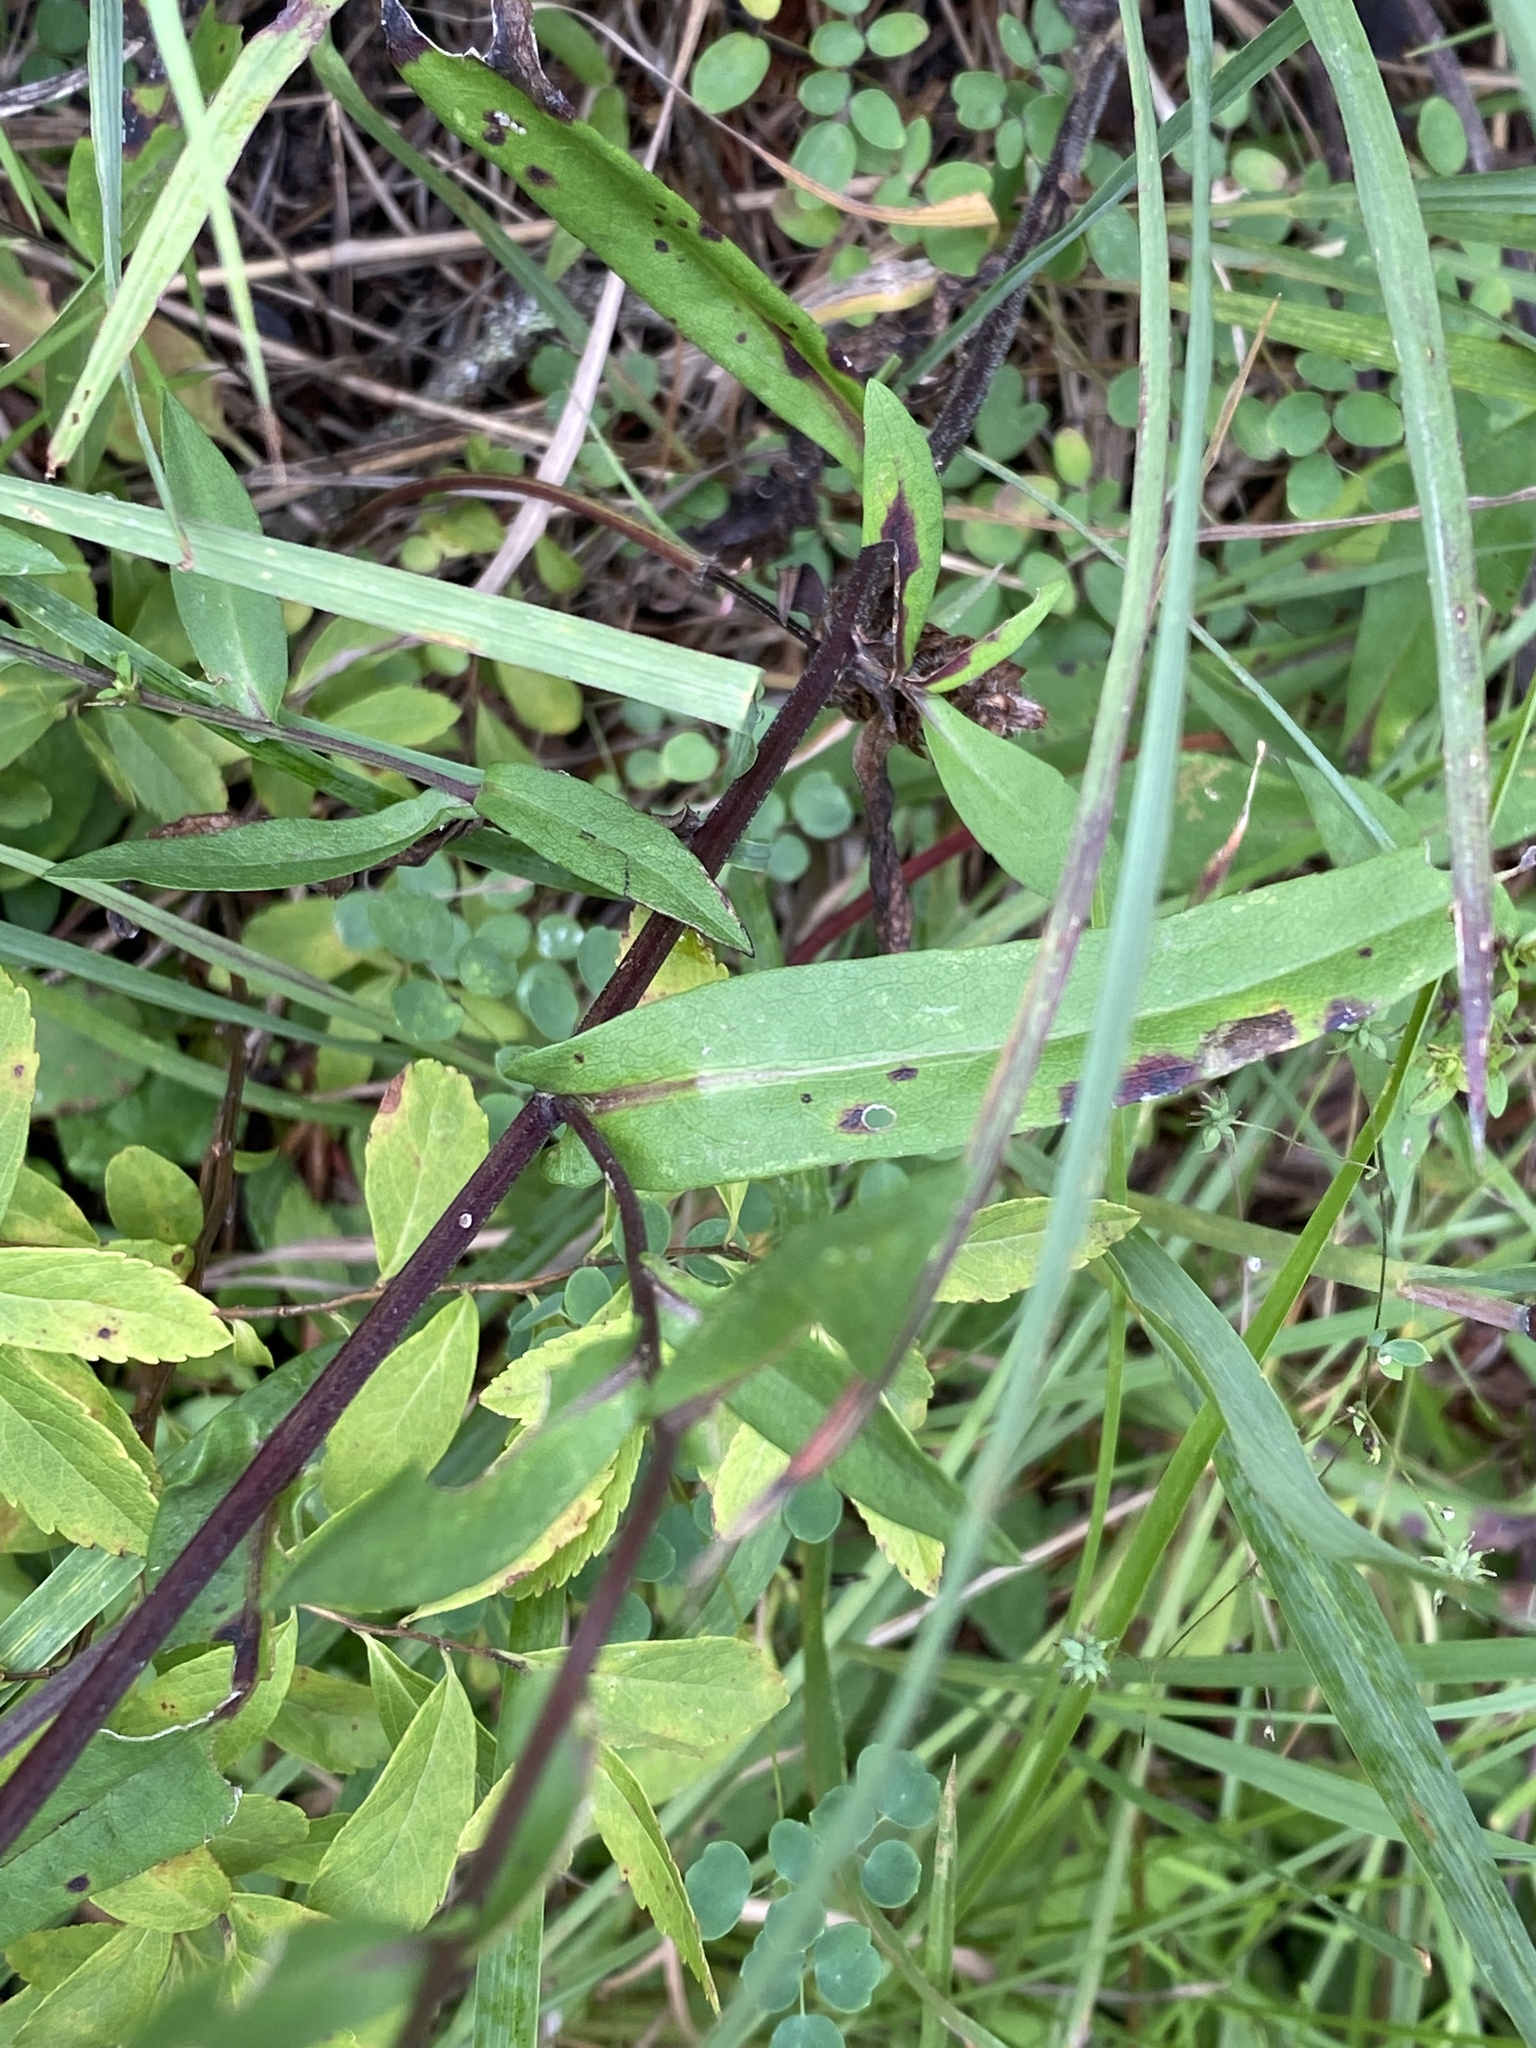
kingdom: Plantae
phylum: Tracheophyta
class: Magnoliopsida
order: Asterales
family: Asteraceae
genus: Symphyotrichum
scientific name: Symphyotrichum rhiannon
